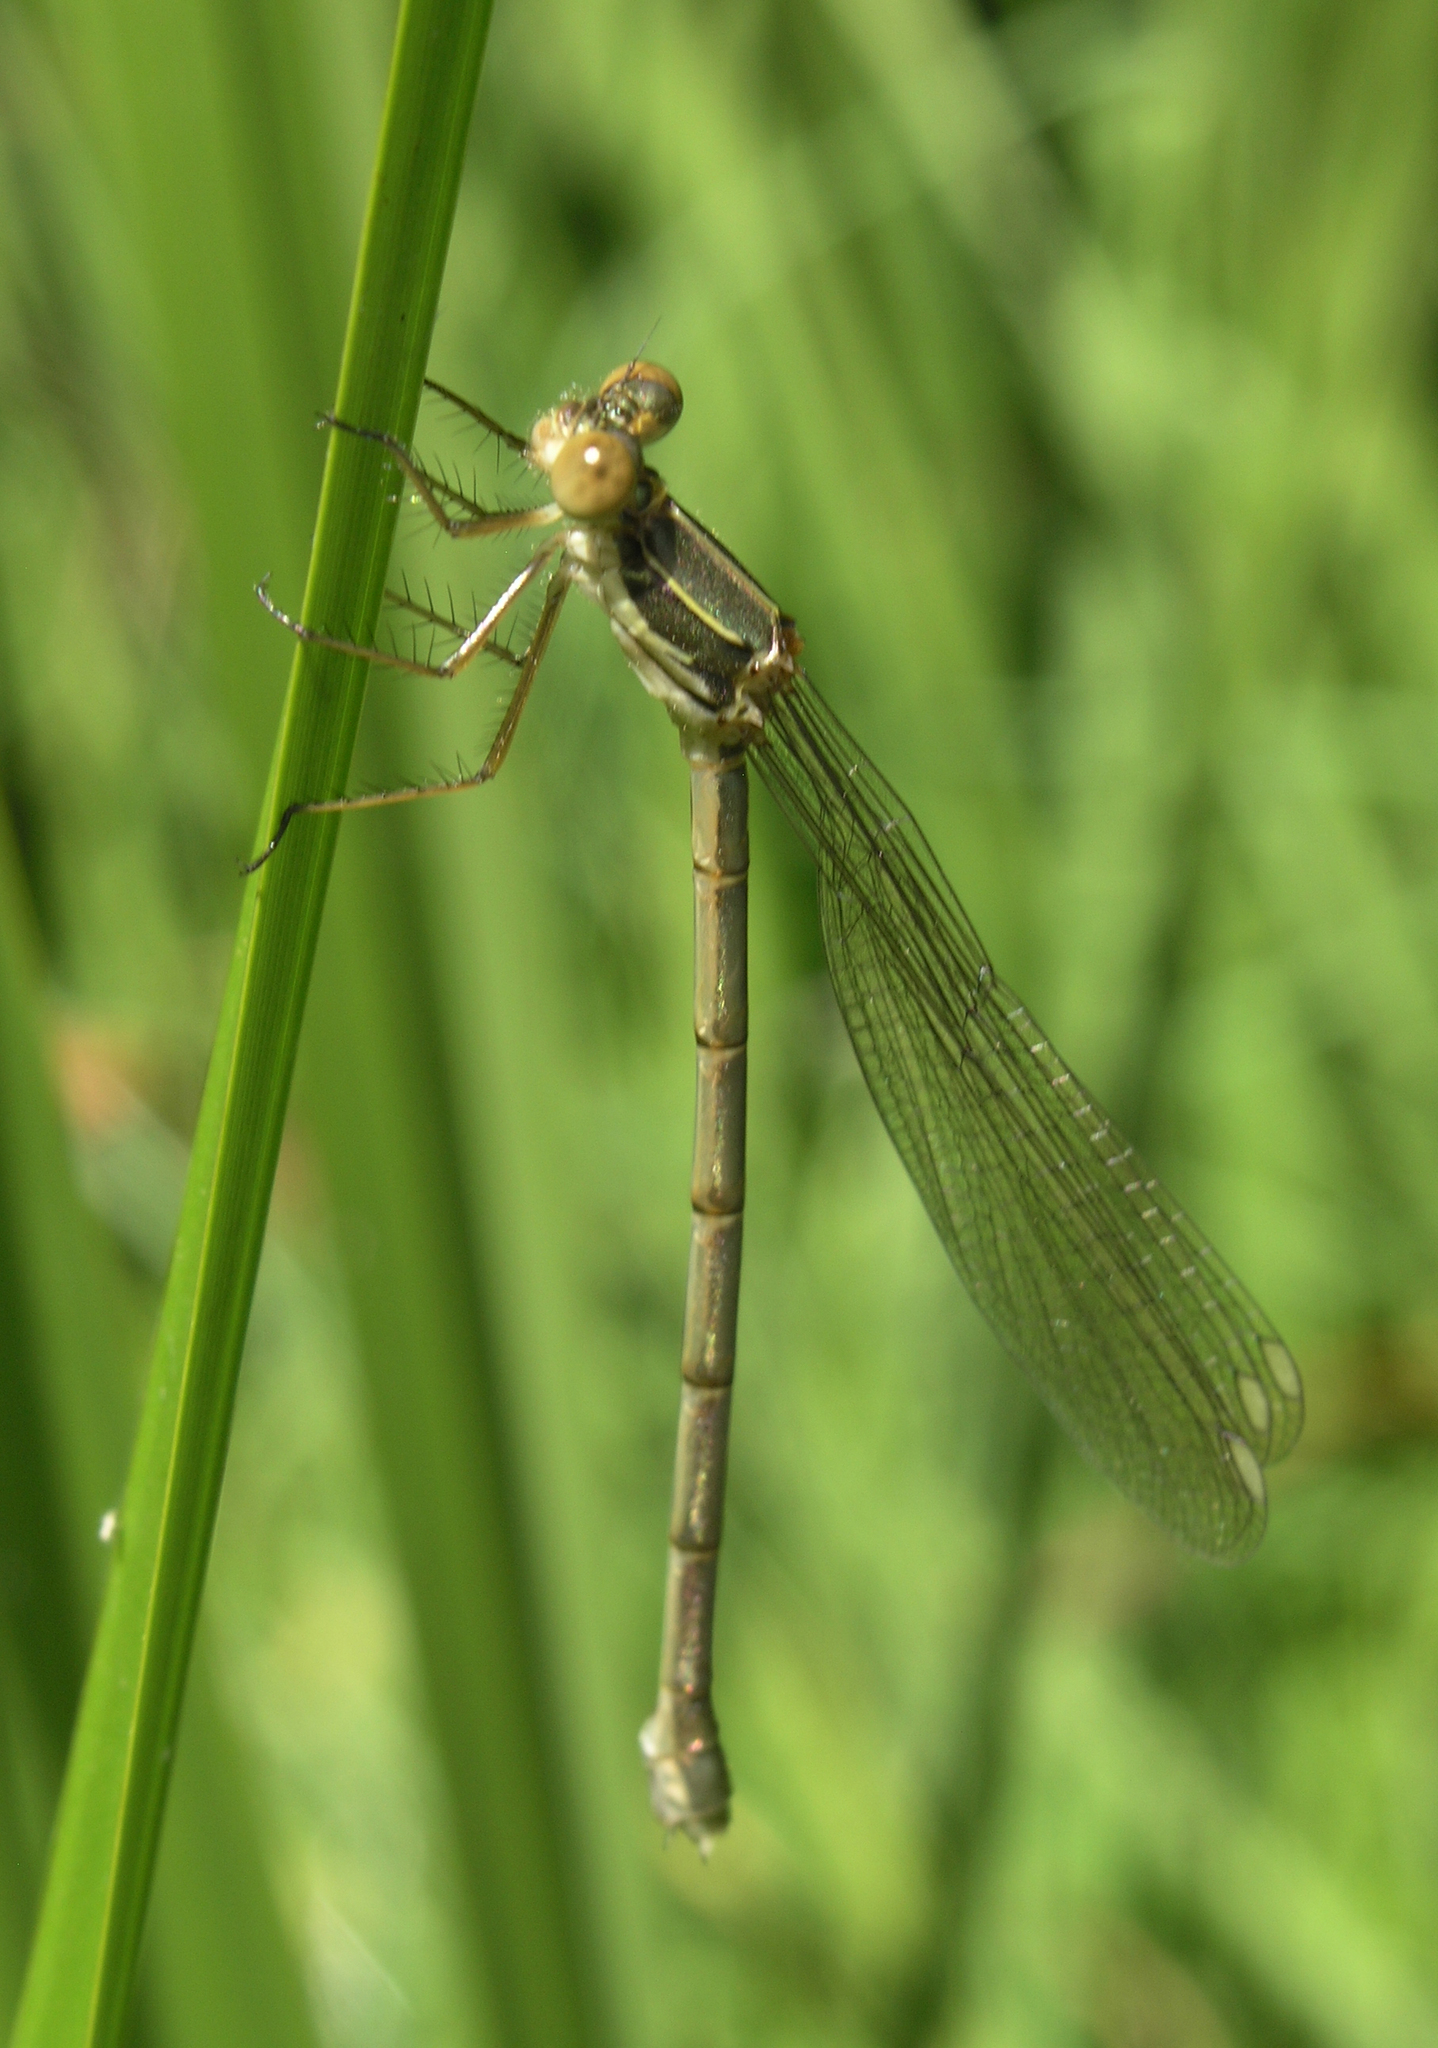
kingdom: Animalia
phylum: Arthropoda
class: Insecta
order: Odonata
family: Lestidae
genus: Chalcolestes
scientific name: Chalcolestes viridis
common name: Green emerald damselfly
